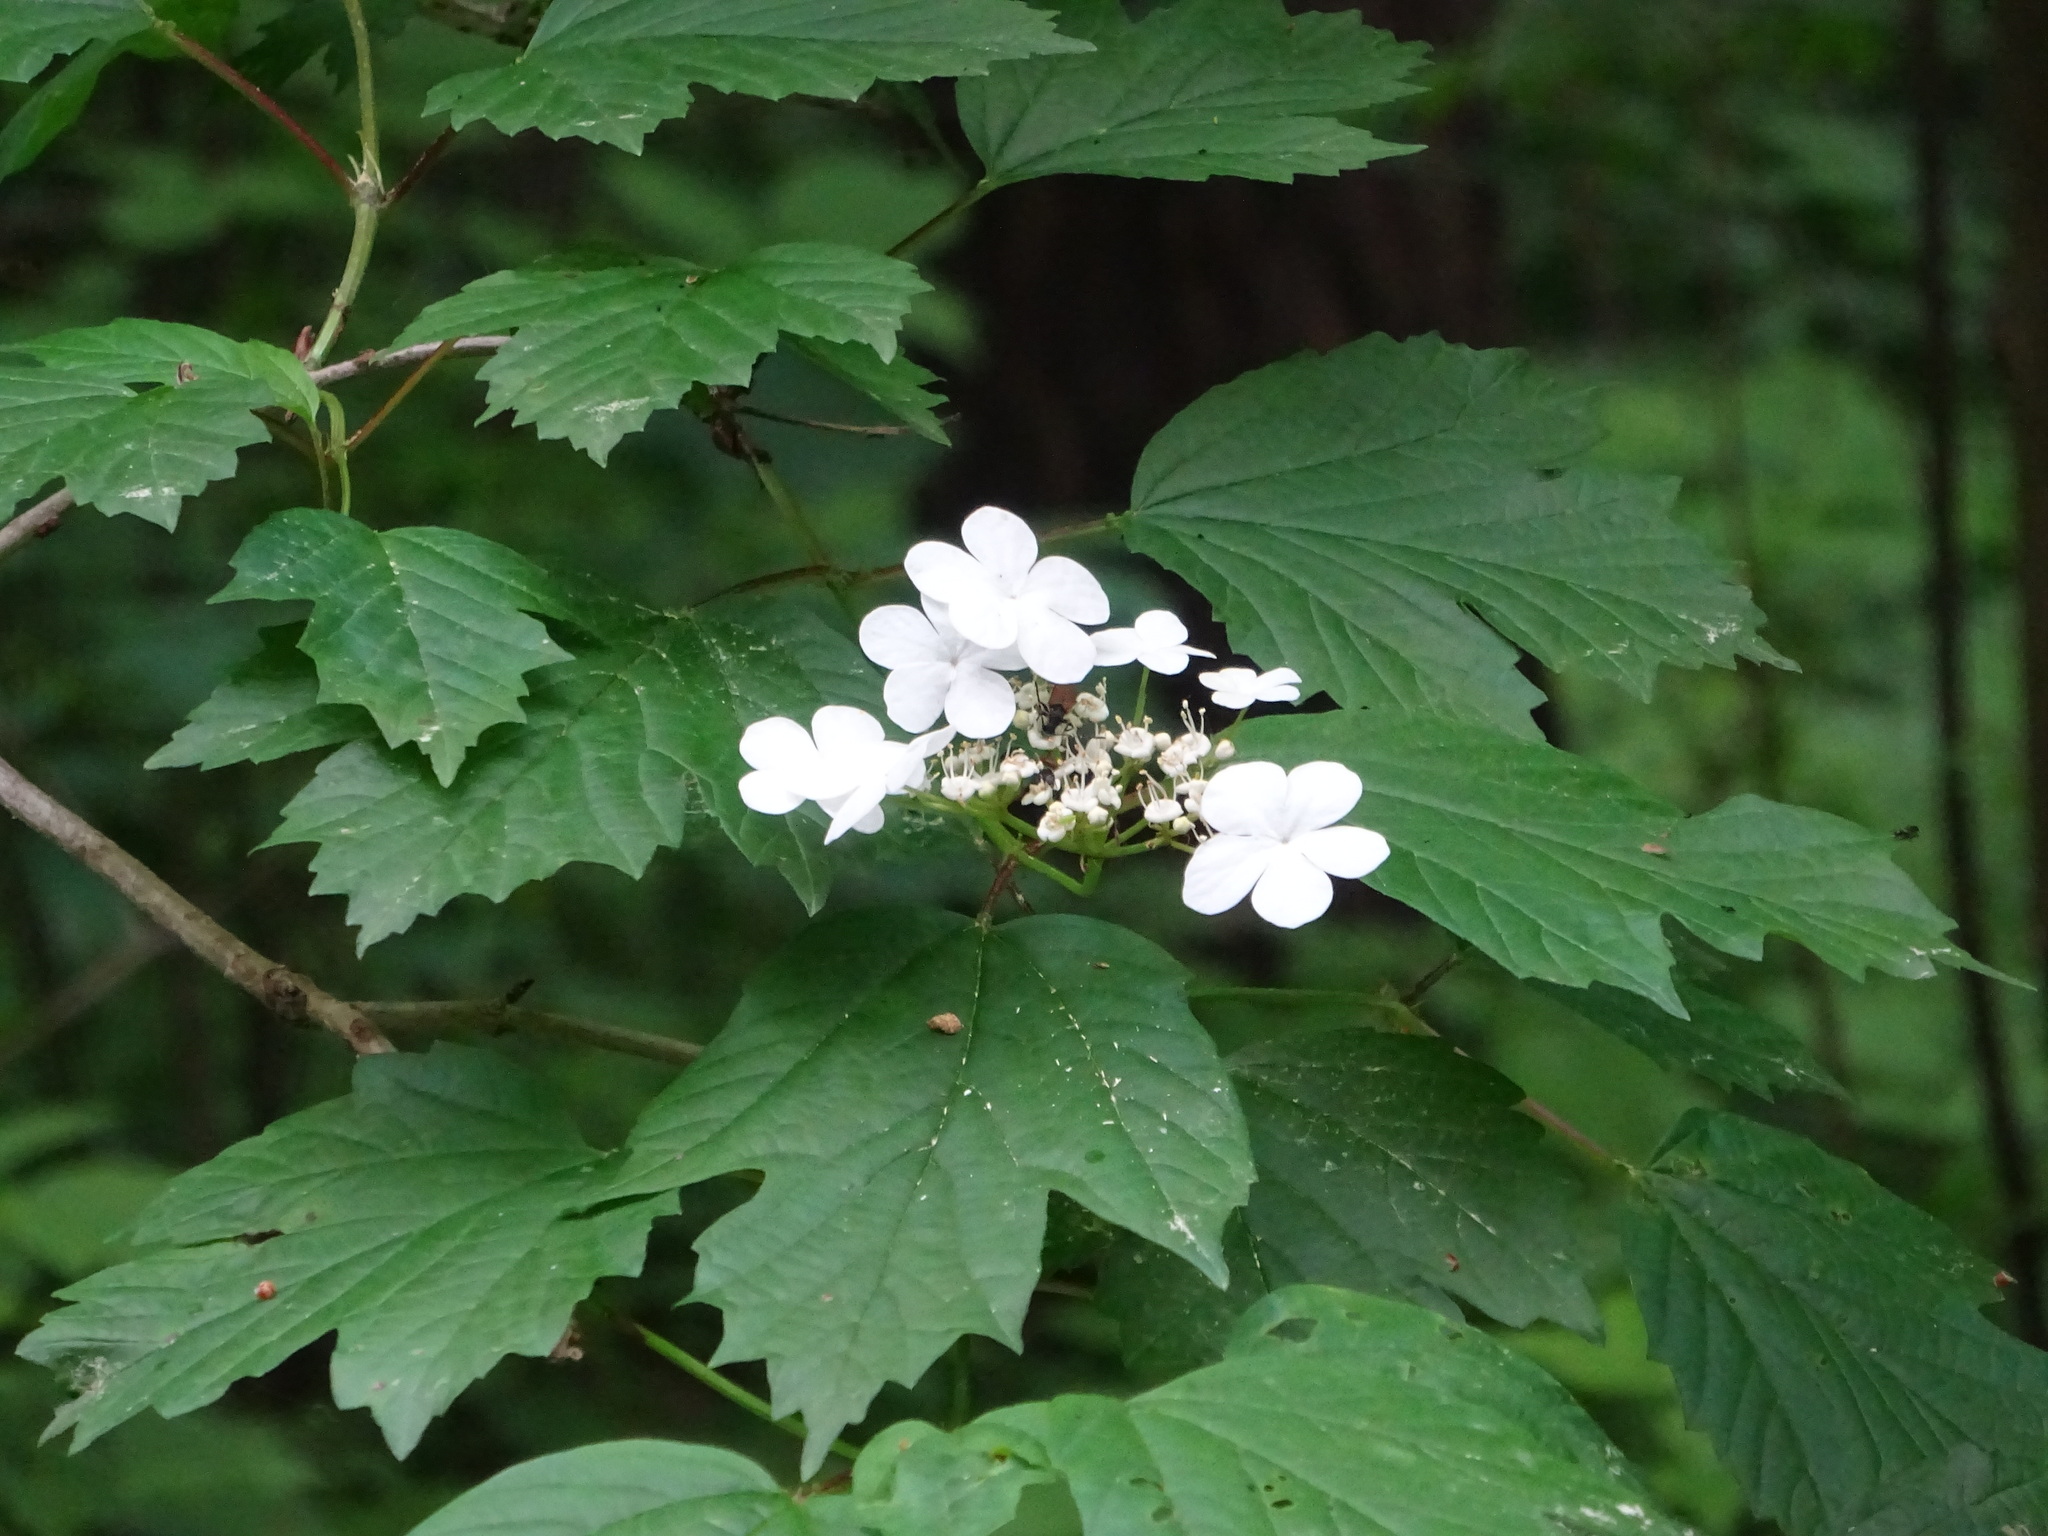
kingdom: Plantae
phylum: Tracheophyta
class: Magnoliopsida
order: Dipsacales
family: Viburnaceae
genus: Viburnum
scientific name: Viburnum opulus
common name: Guelder-rose
